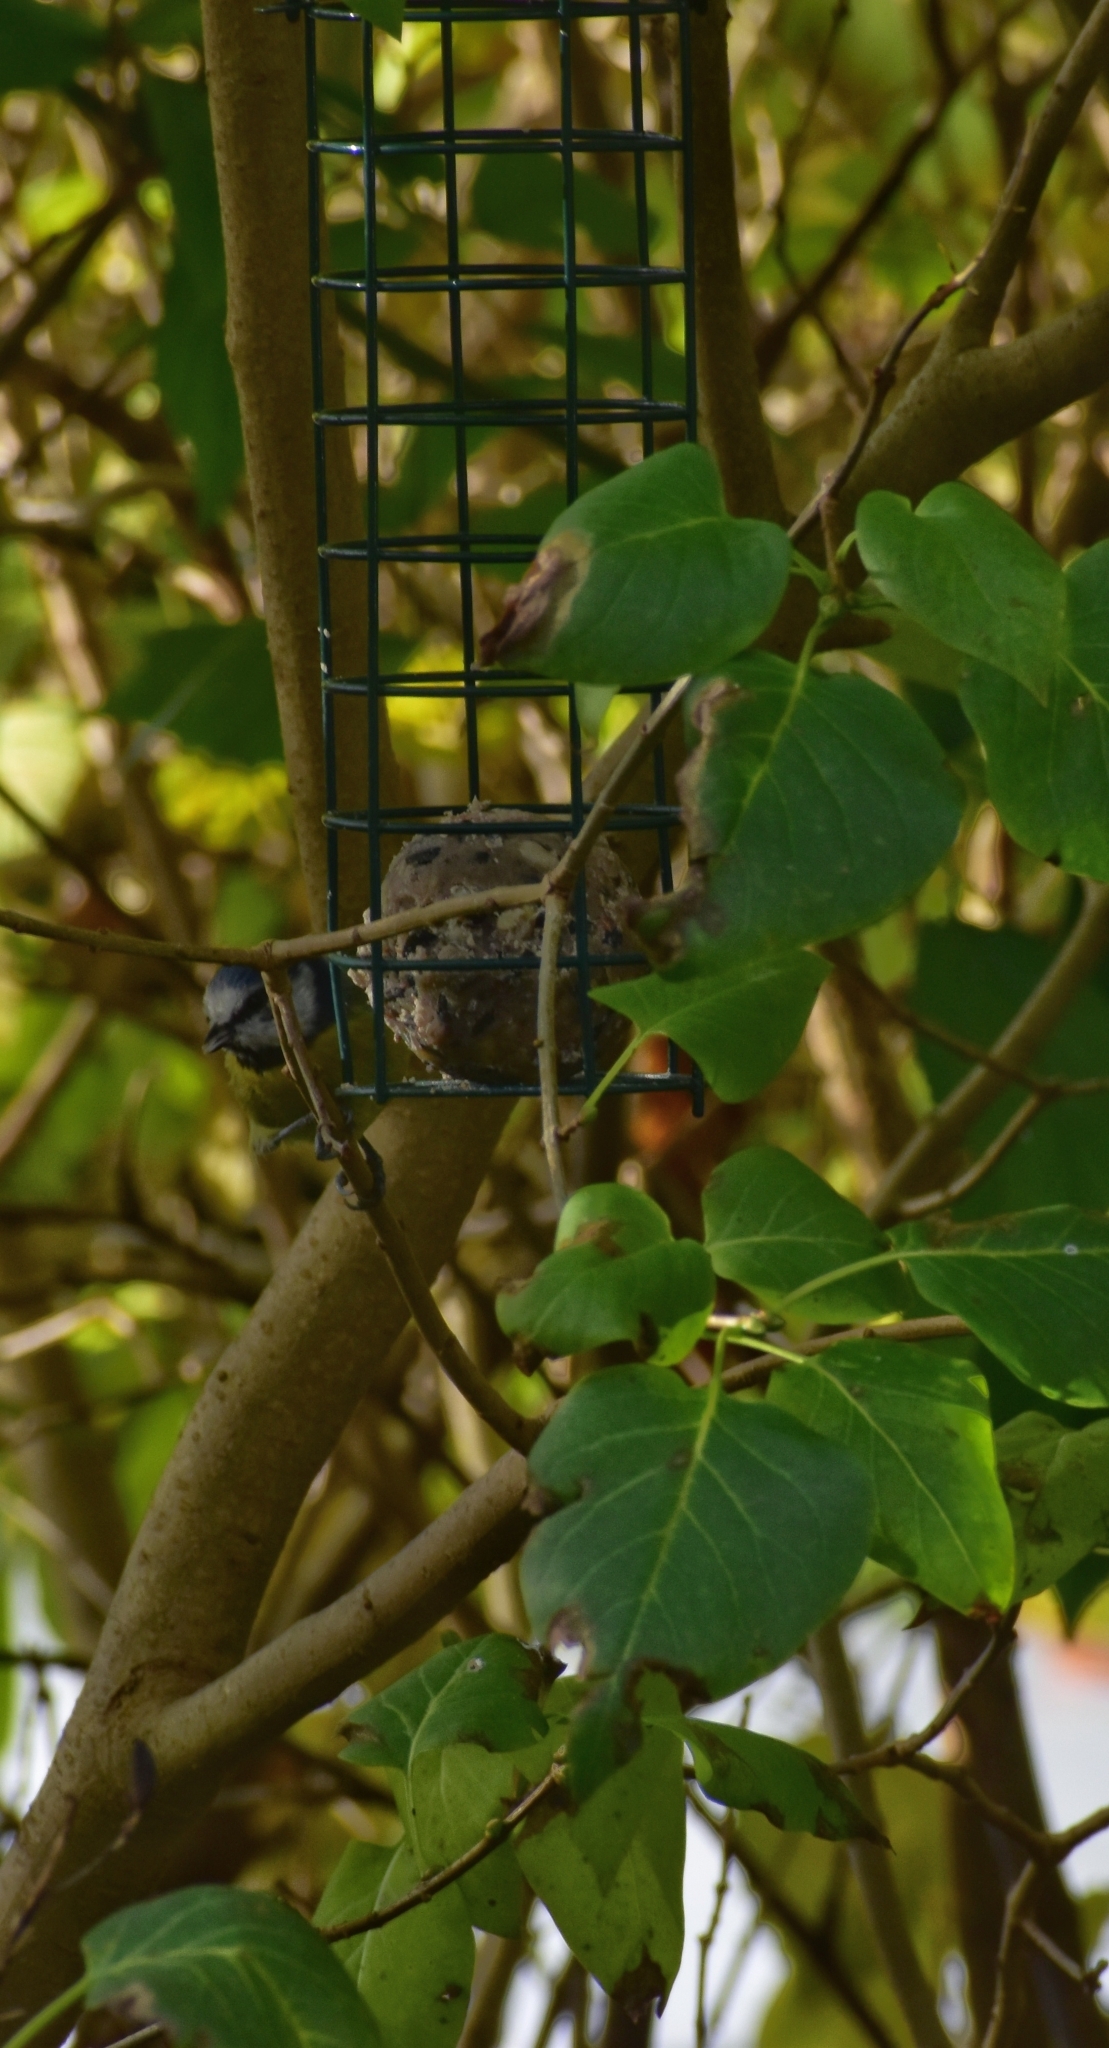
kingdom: Animalia
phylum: Chordata
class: Aves
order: Passeriformes
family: Paridae
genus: Cyanistes
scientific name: Cyanistes caeruleus
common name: Eurasian blue tit
